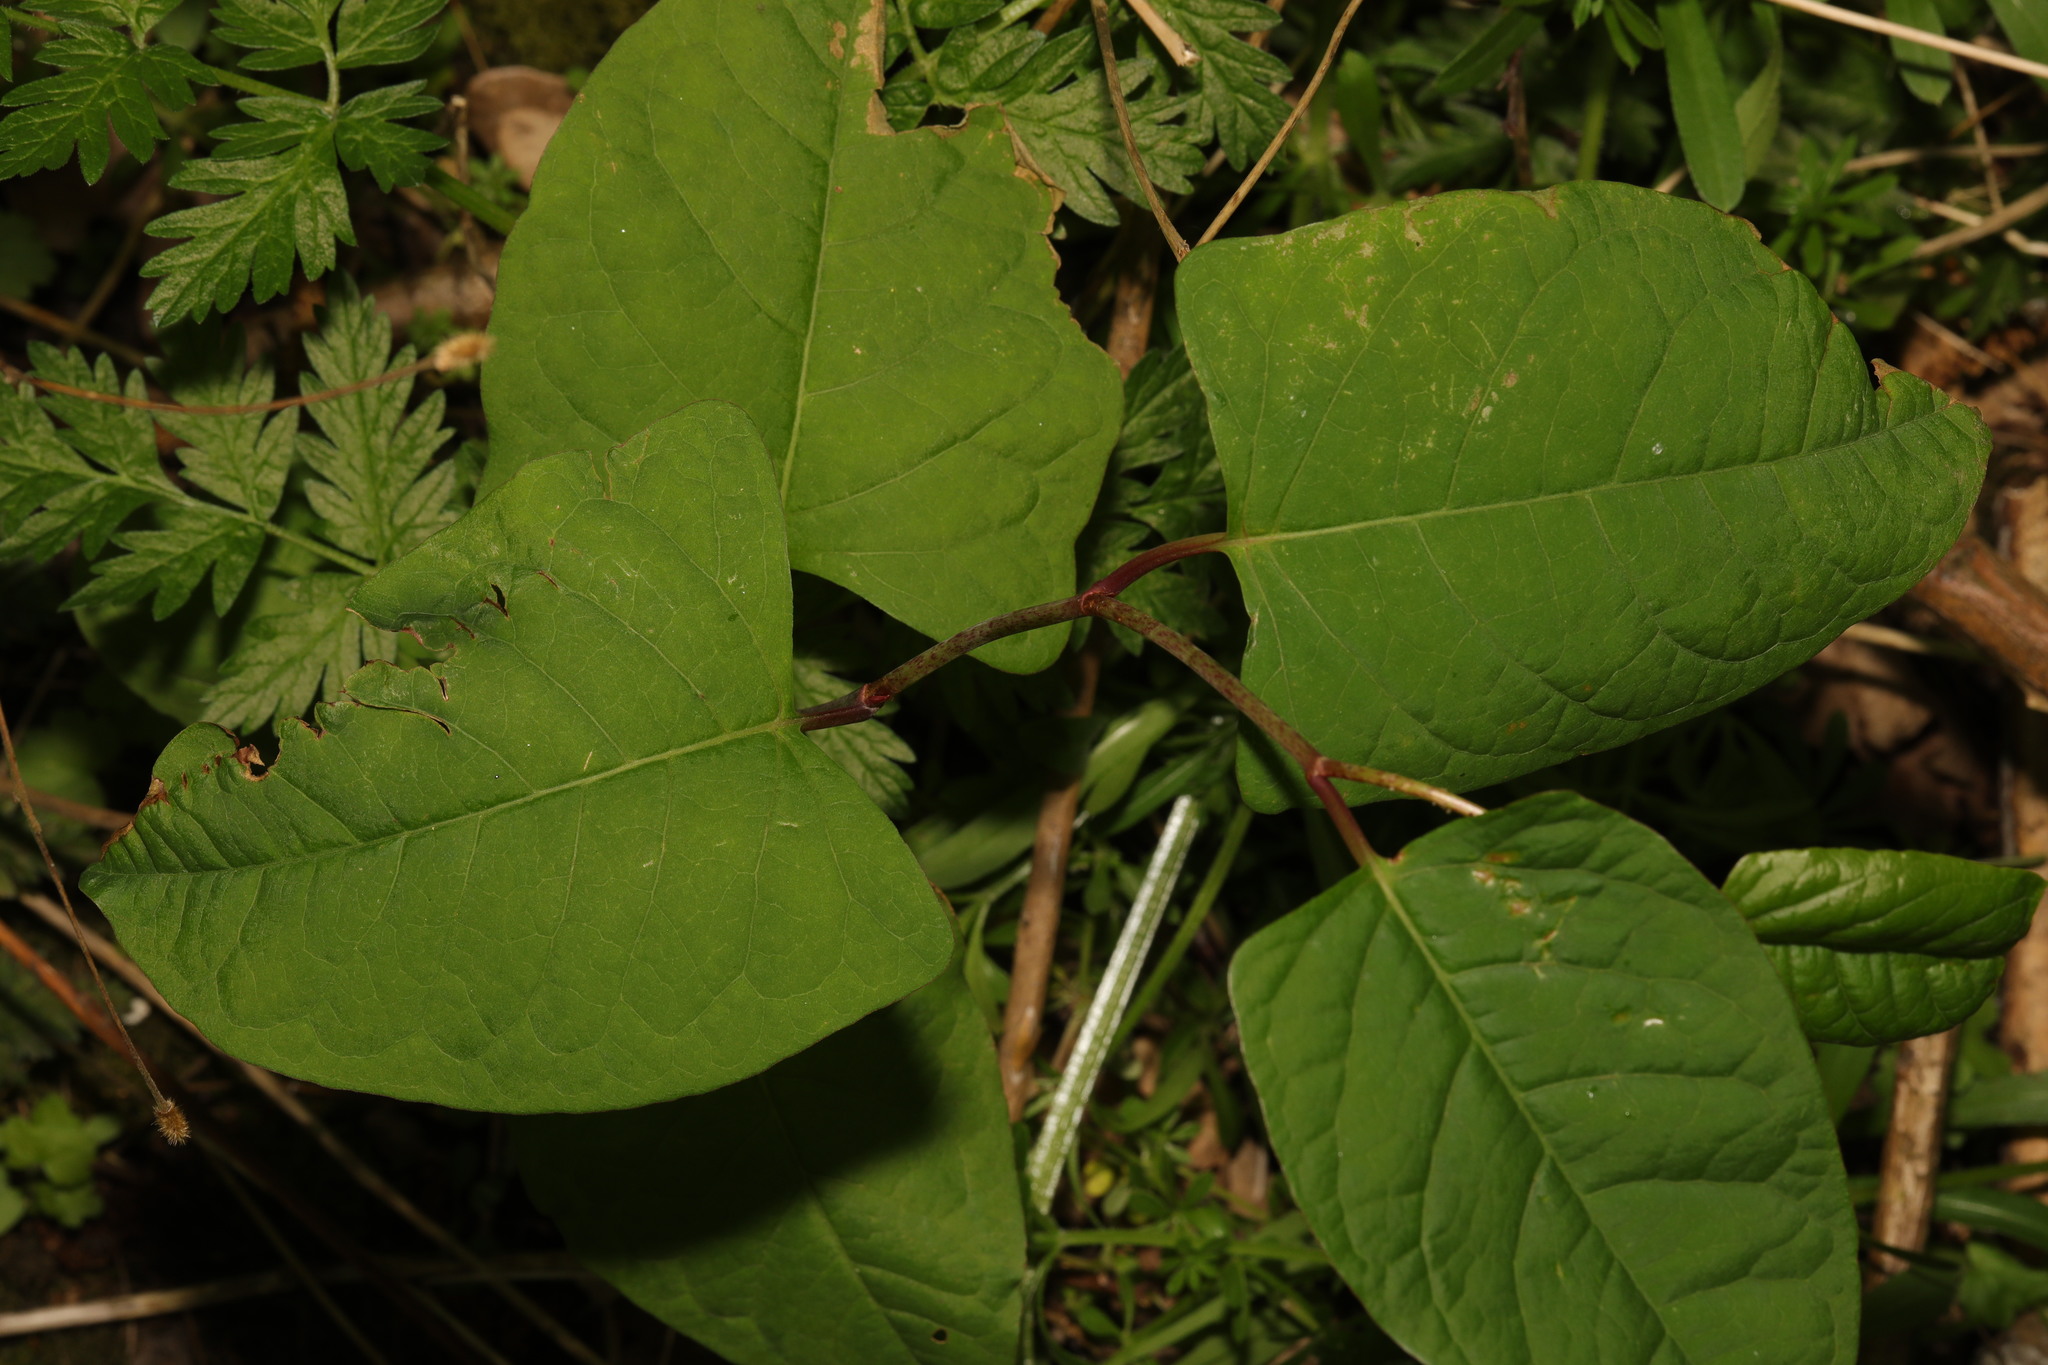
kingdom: Plantae
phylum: Tracheophyta
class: Magnoliopsida
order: Caryophyllales
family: Polygonaceae
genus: Reynoutria
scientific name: Reynoutria bohemica
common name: Bohemian knotweed
